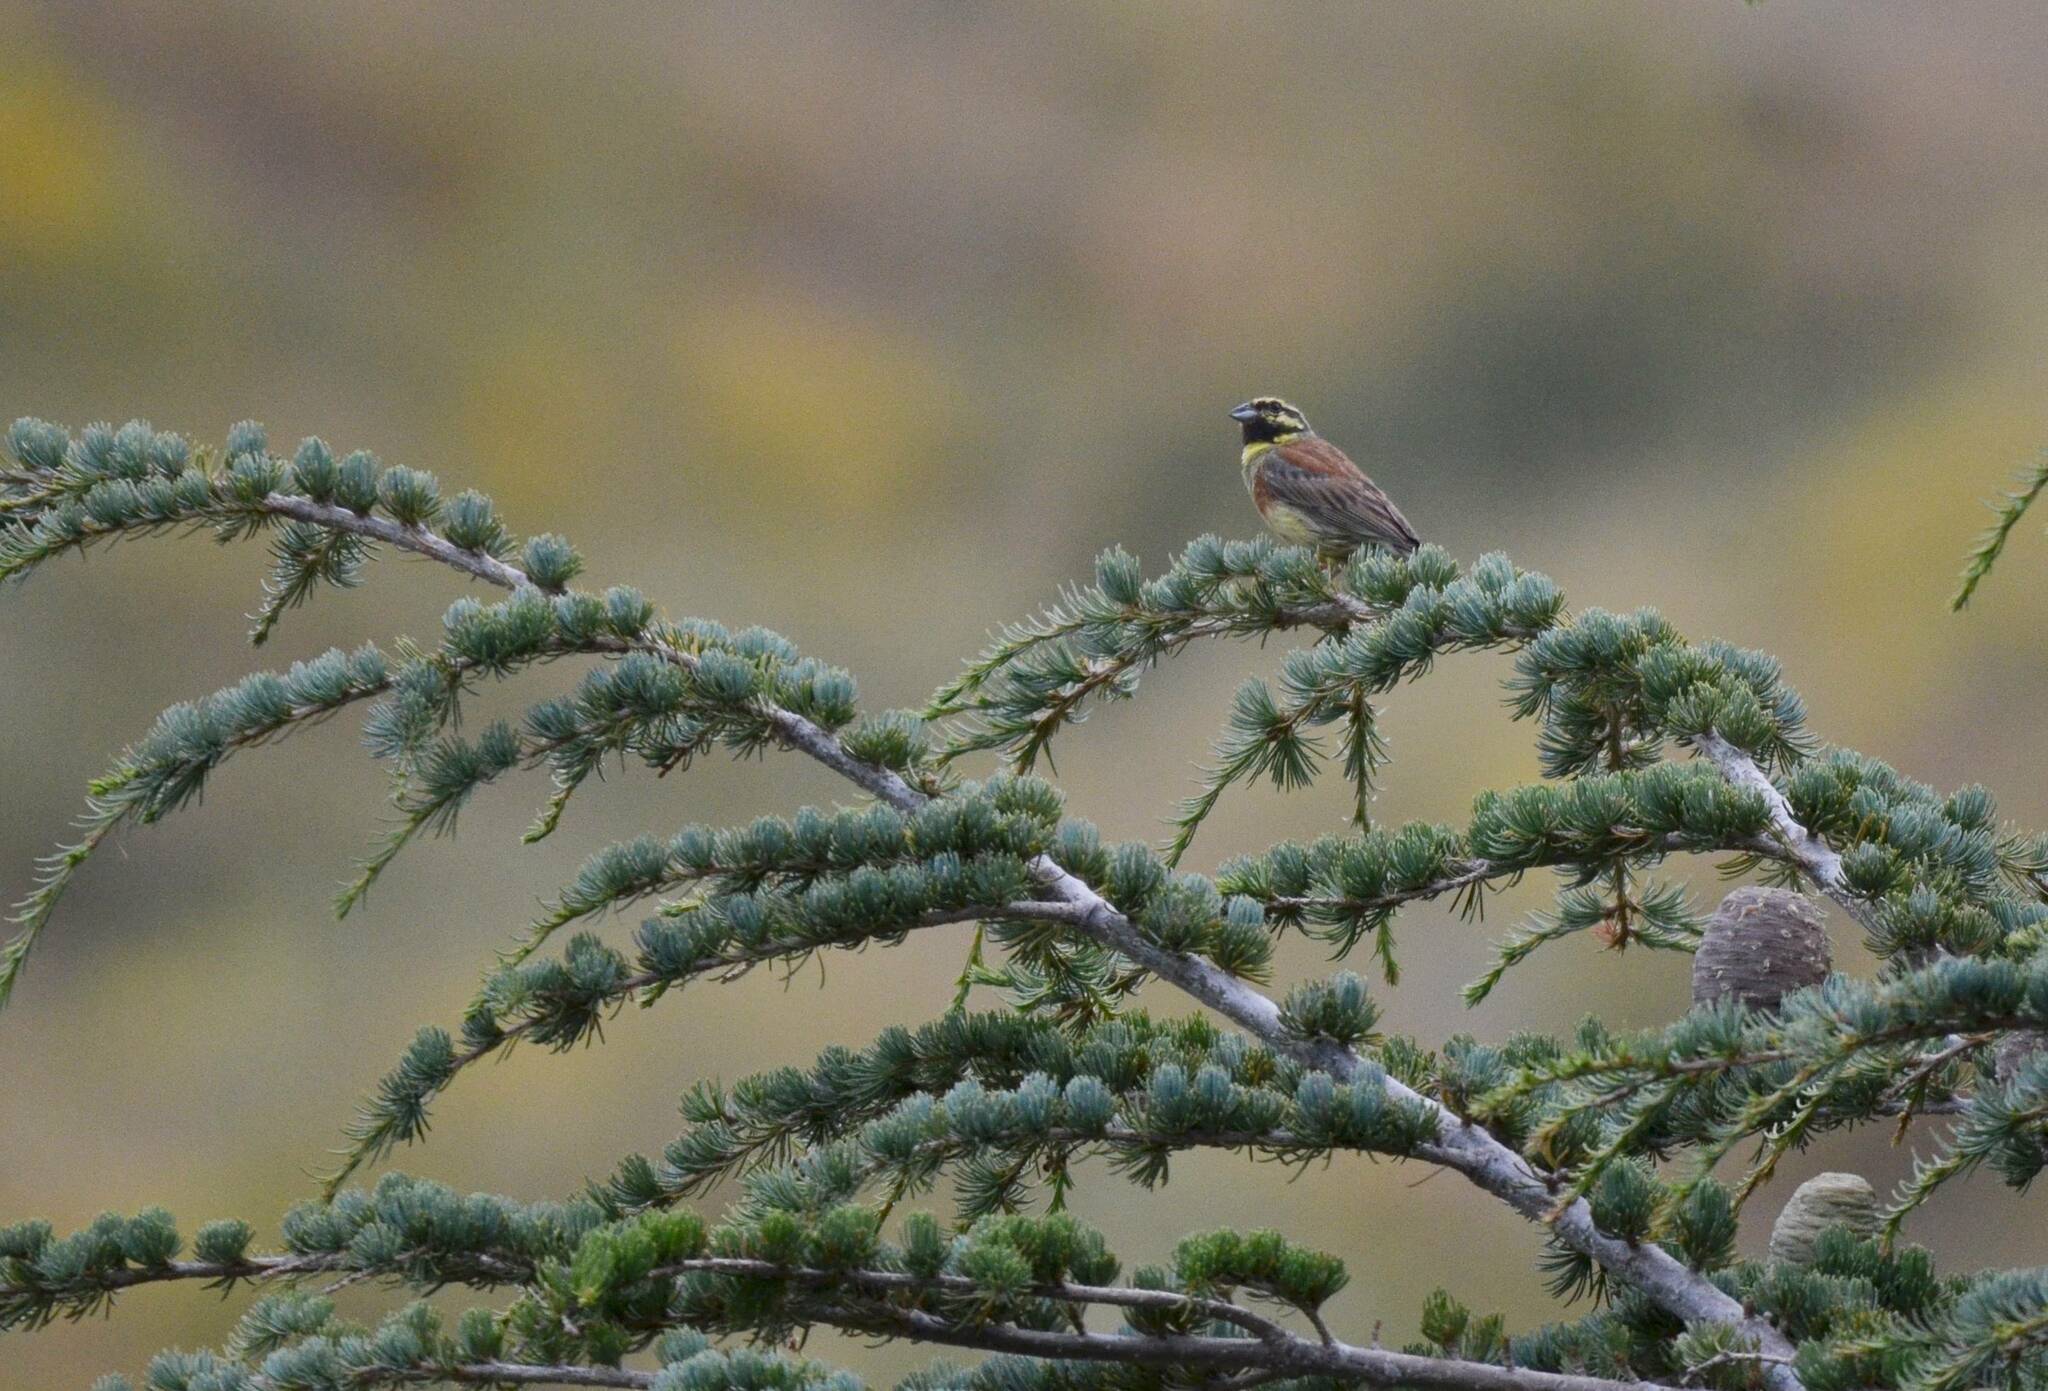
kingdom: Animalia
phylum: Chordata
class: Aves
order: Passeriformes
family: Emberizidae
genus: Emberiza
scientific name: Emberiza cirlus
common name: Cirl bunting
